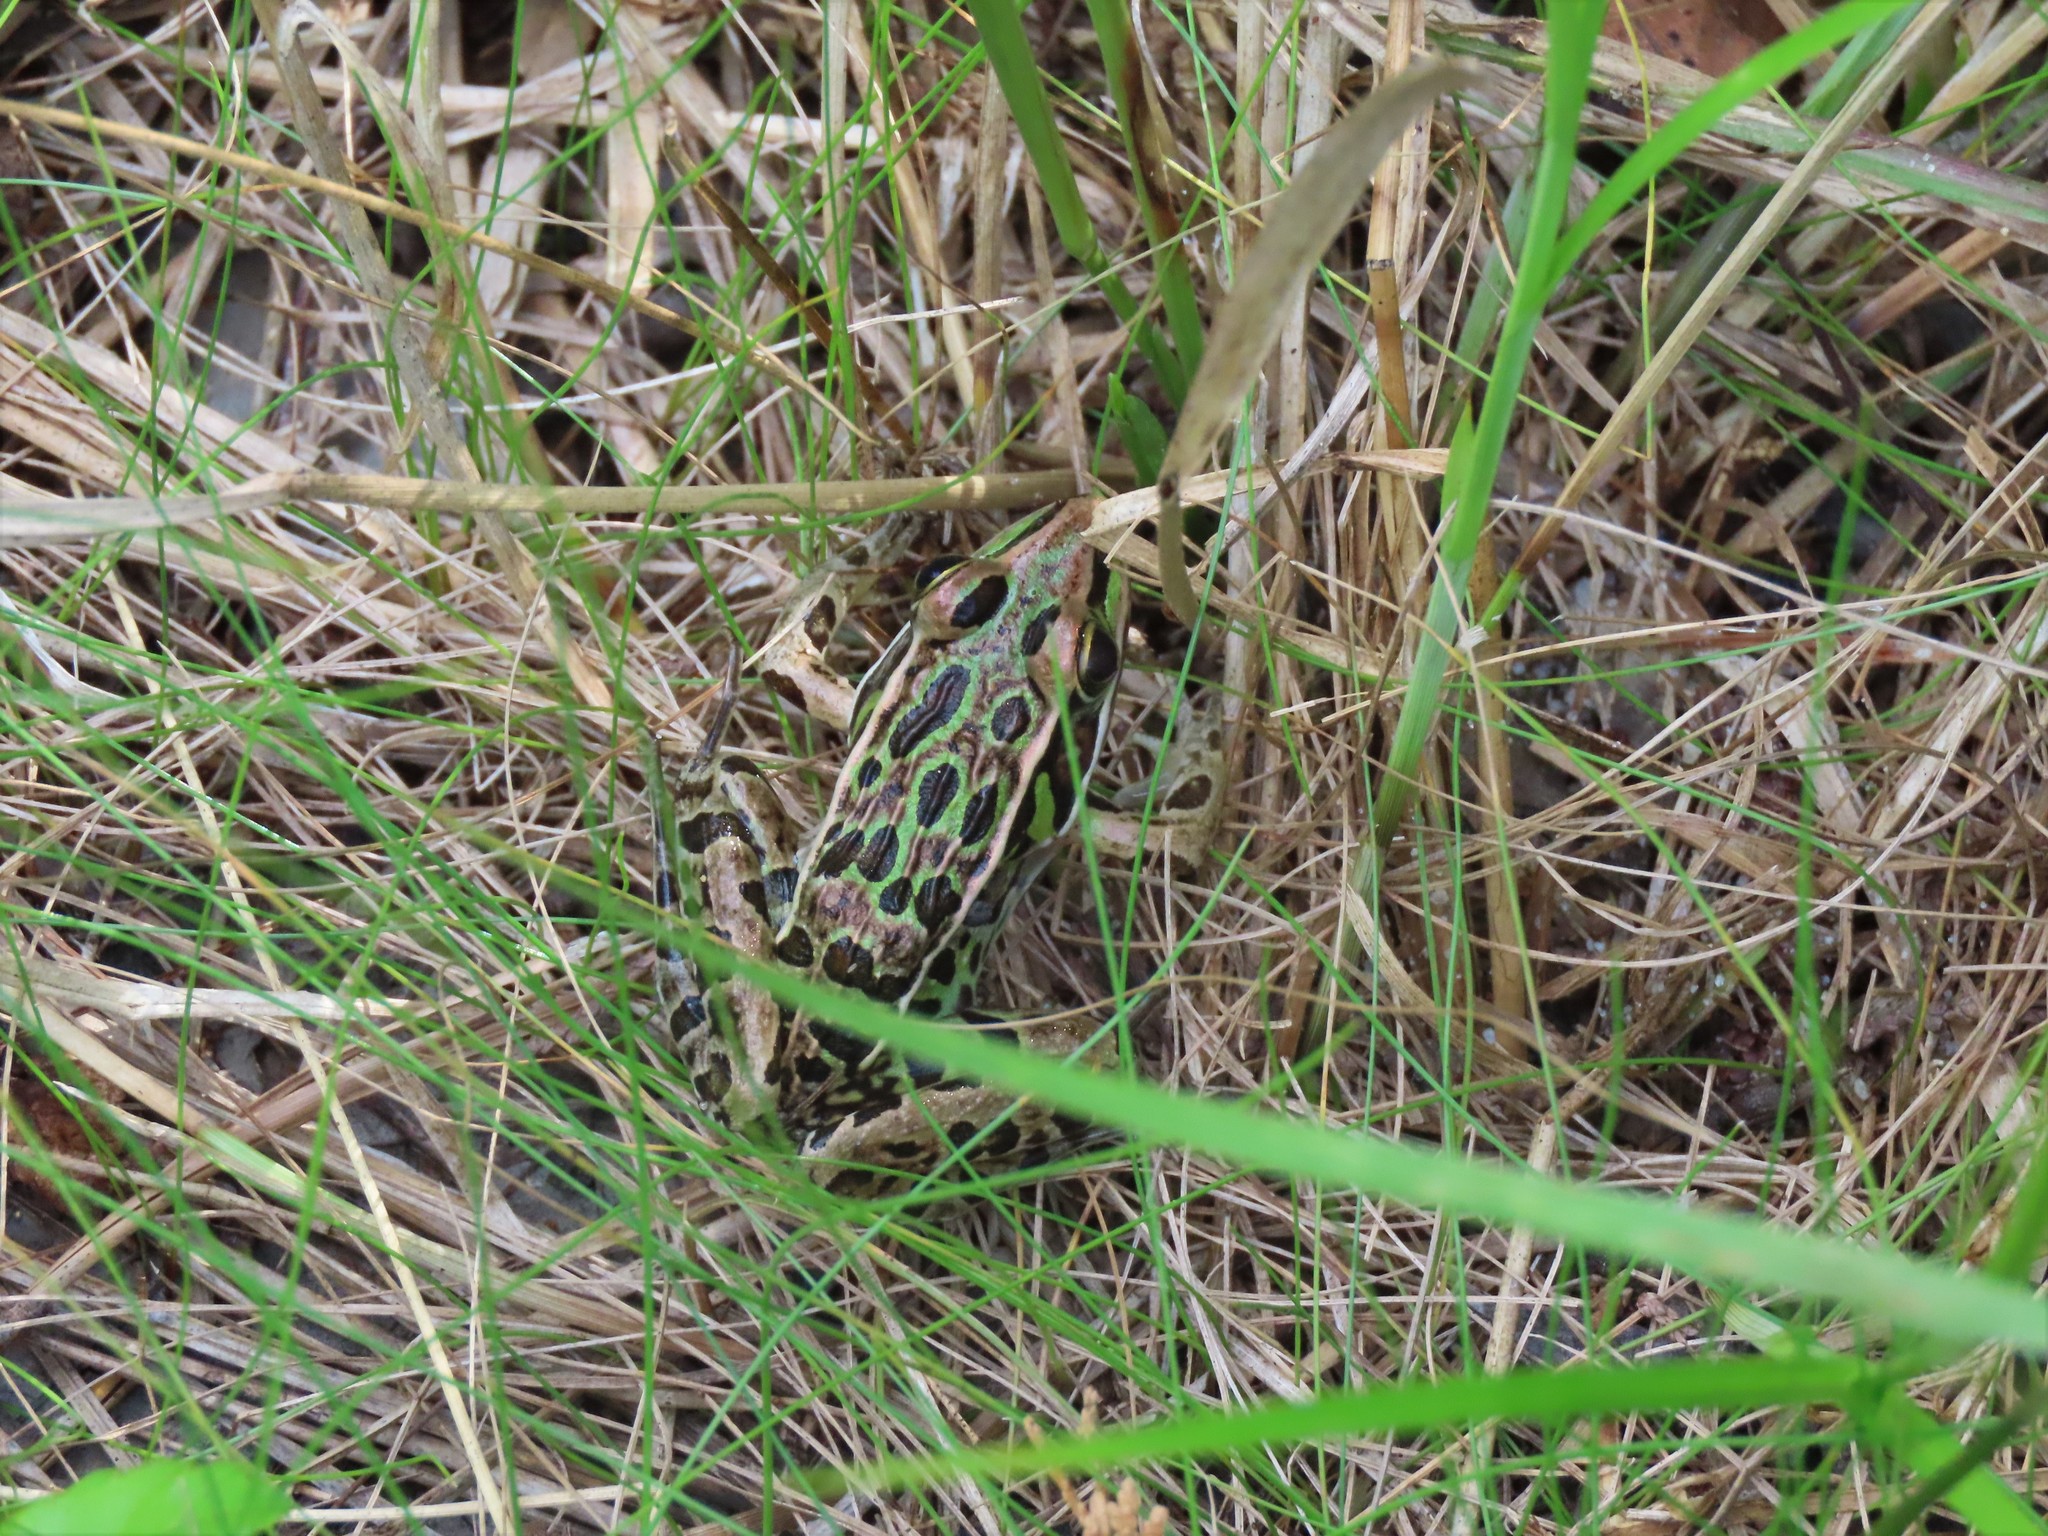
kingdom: Animalia
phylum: Chordata
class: Amphibia
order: Anura
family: Ranidae
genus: Lithobates
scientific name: Lithobates sphenocephalus
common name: Southern leopard frog
